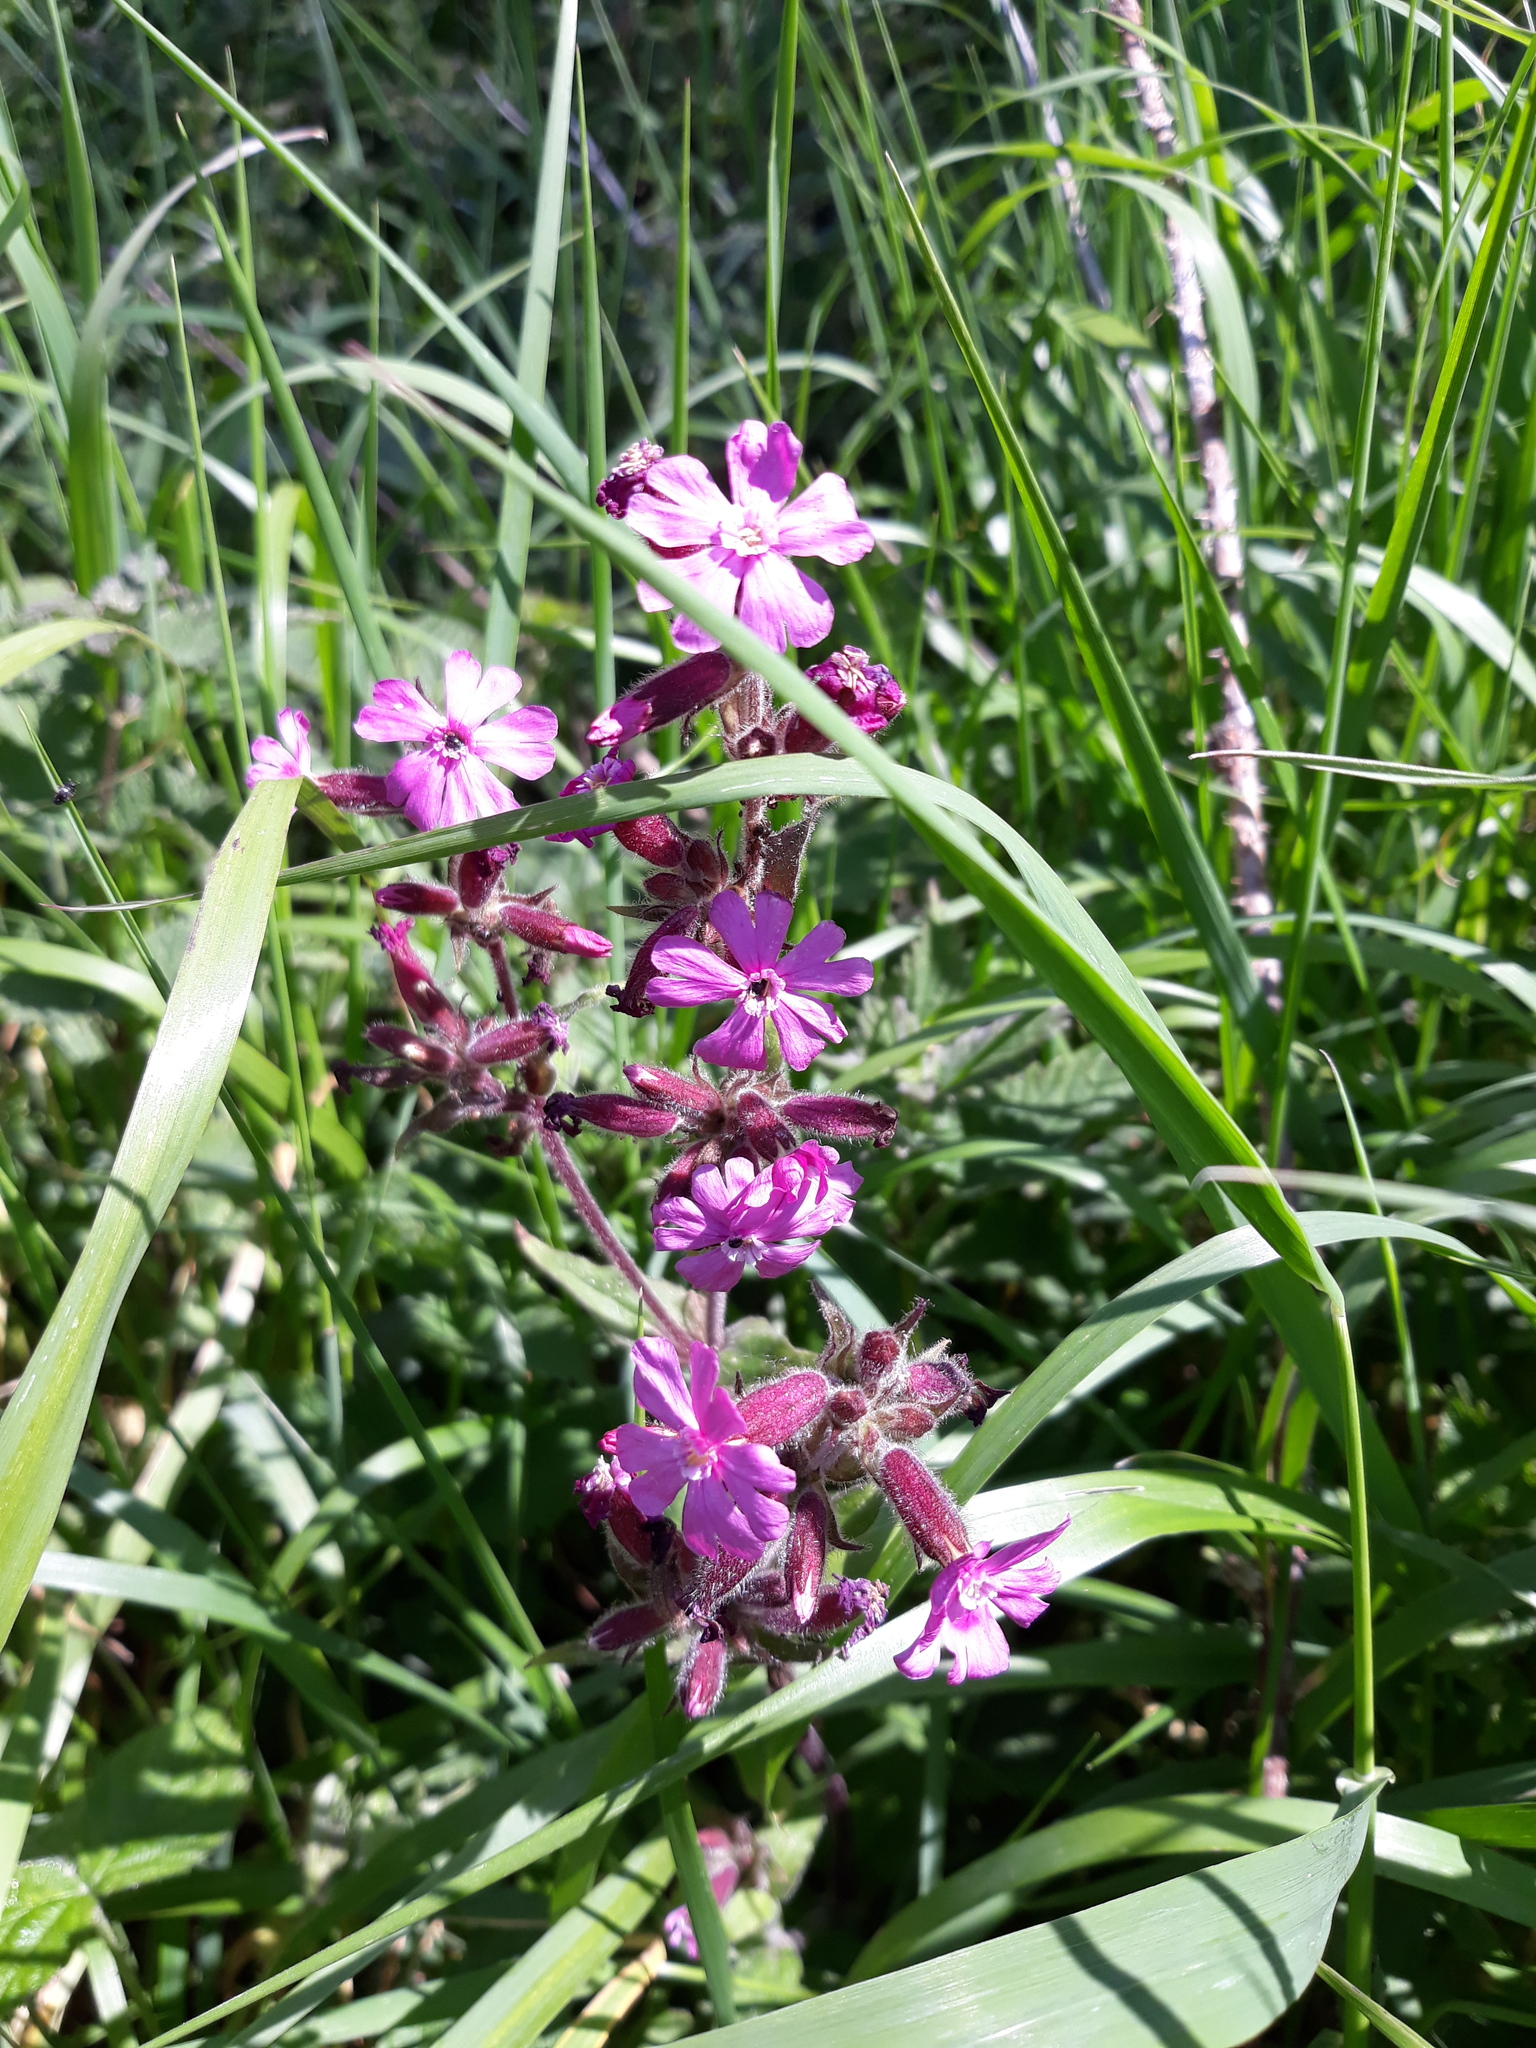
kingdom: Plantae
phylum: Tracheophyta
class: Magnoliopsida
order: Caryophyllales
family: Caryophyllaceae
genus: Silene
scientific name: Silene dioica
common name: Red campion
